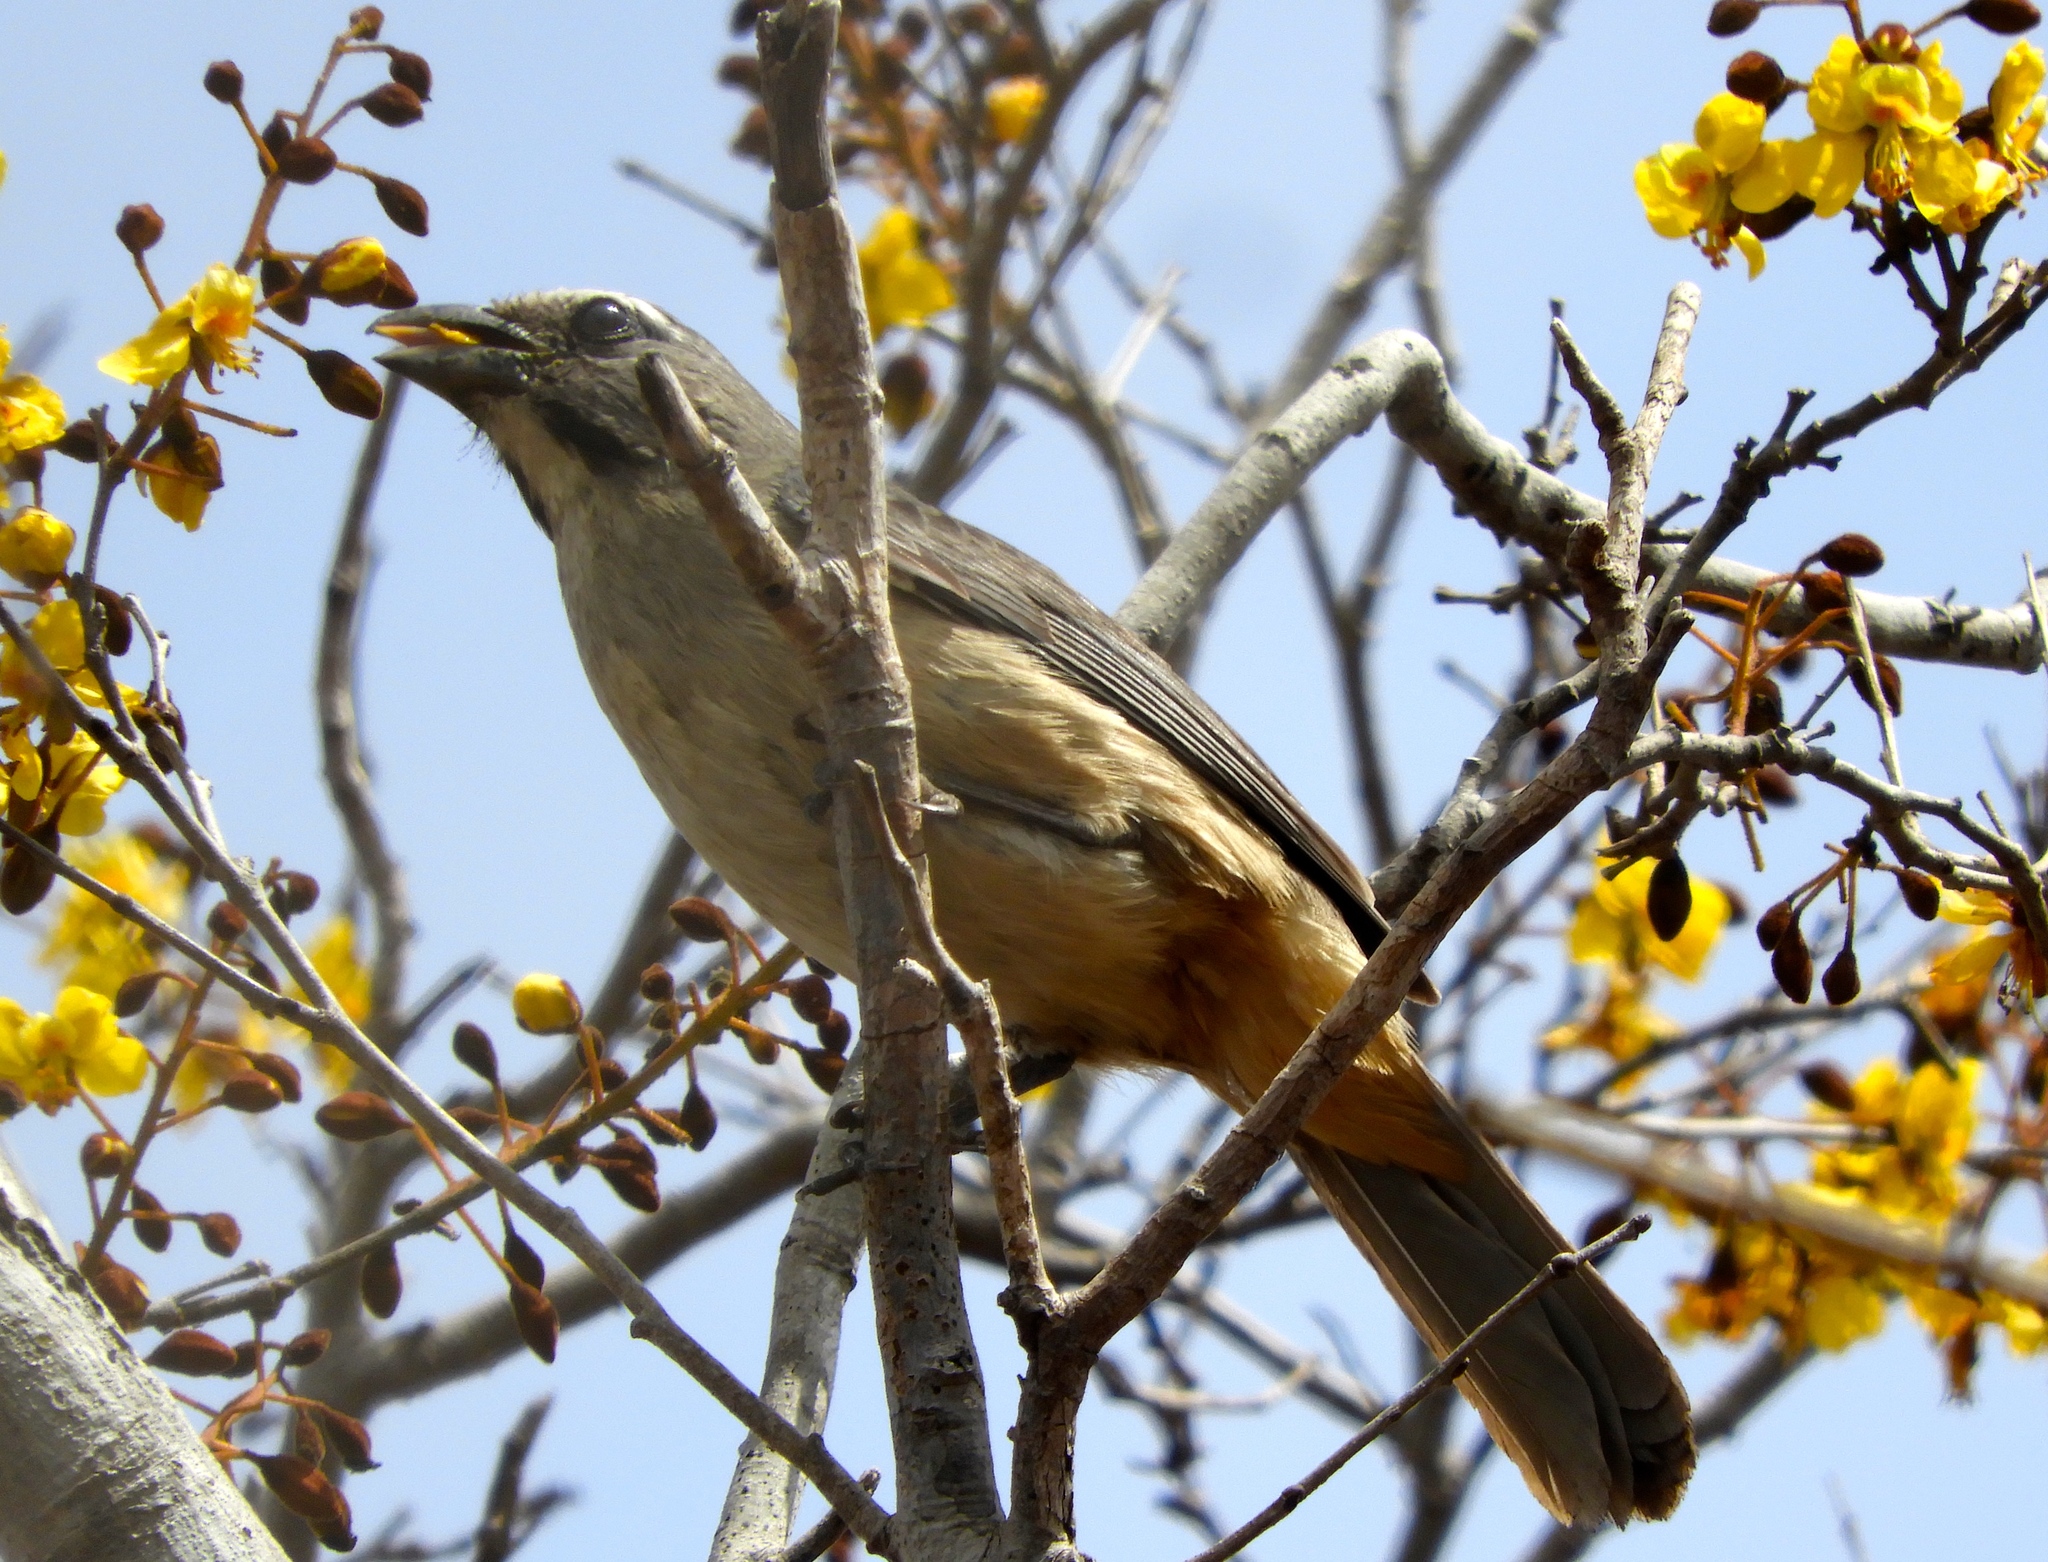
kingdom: Animalia
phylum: Chordata
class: Aves
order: Passeriformes
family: Thraupidae
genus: Saltator
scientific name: Saltator grandis
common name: Cinnamon-bellied saltator
